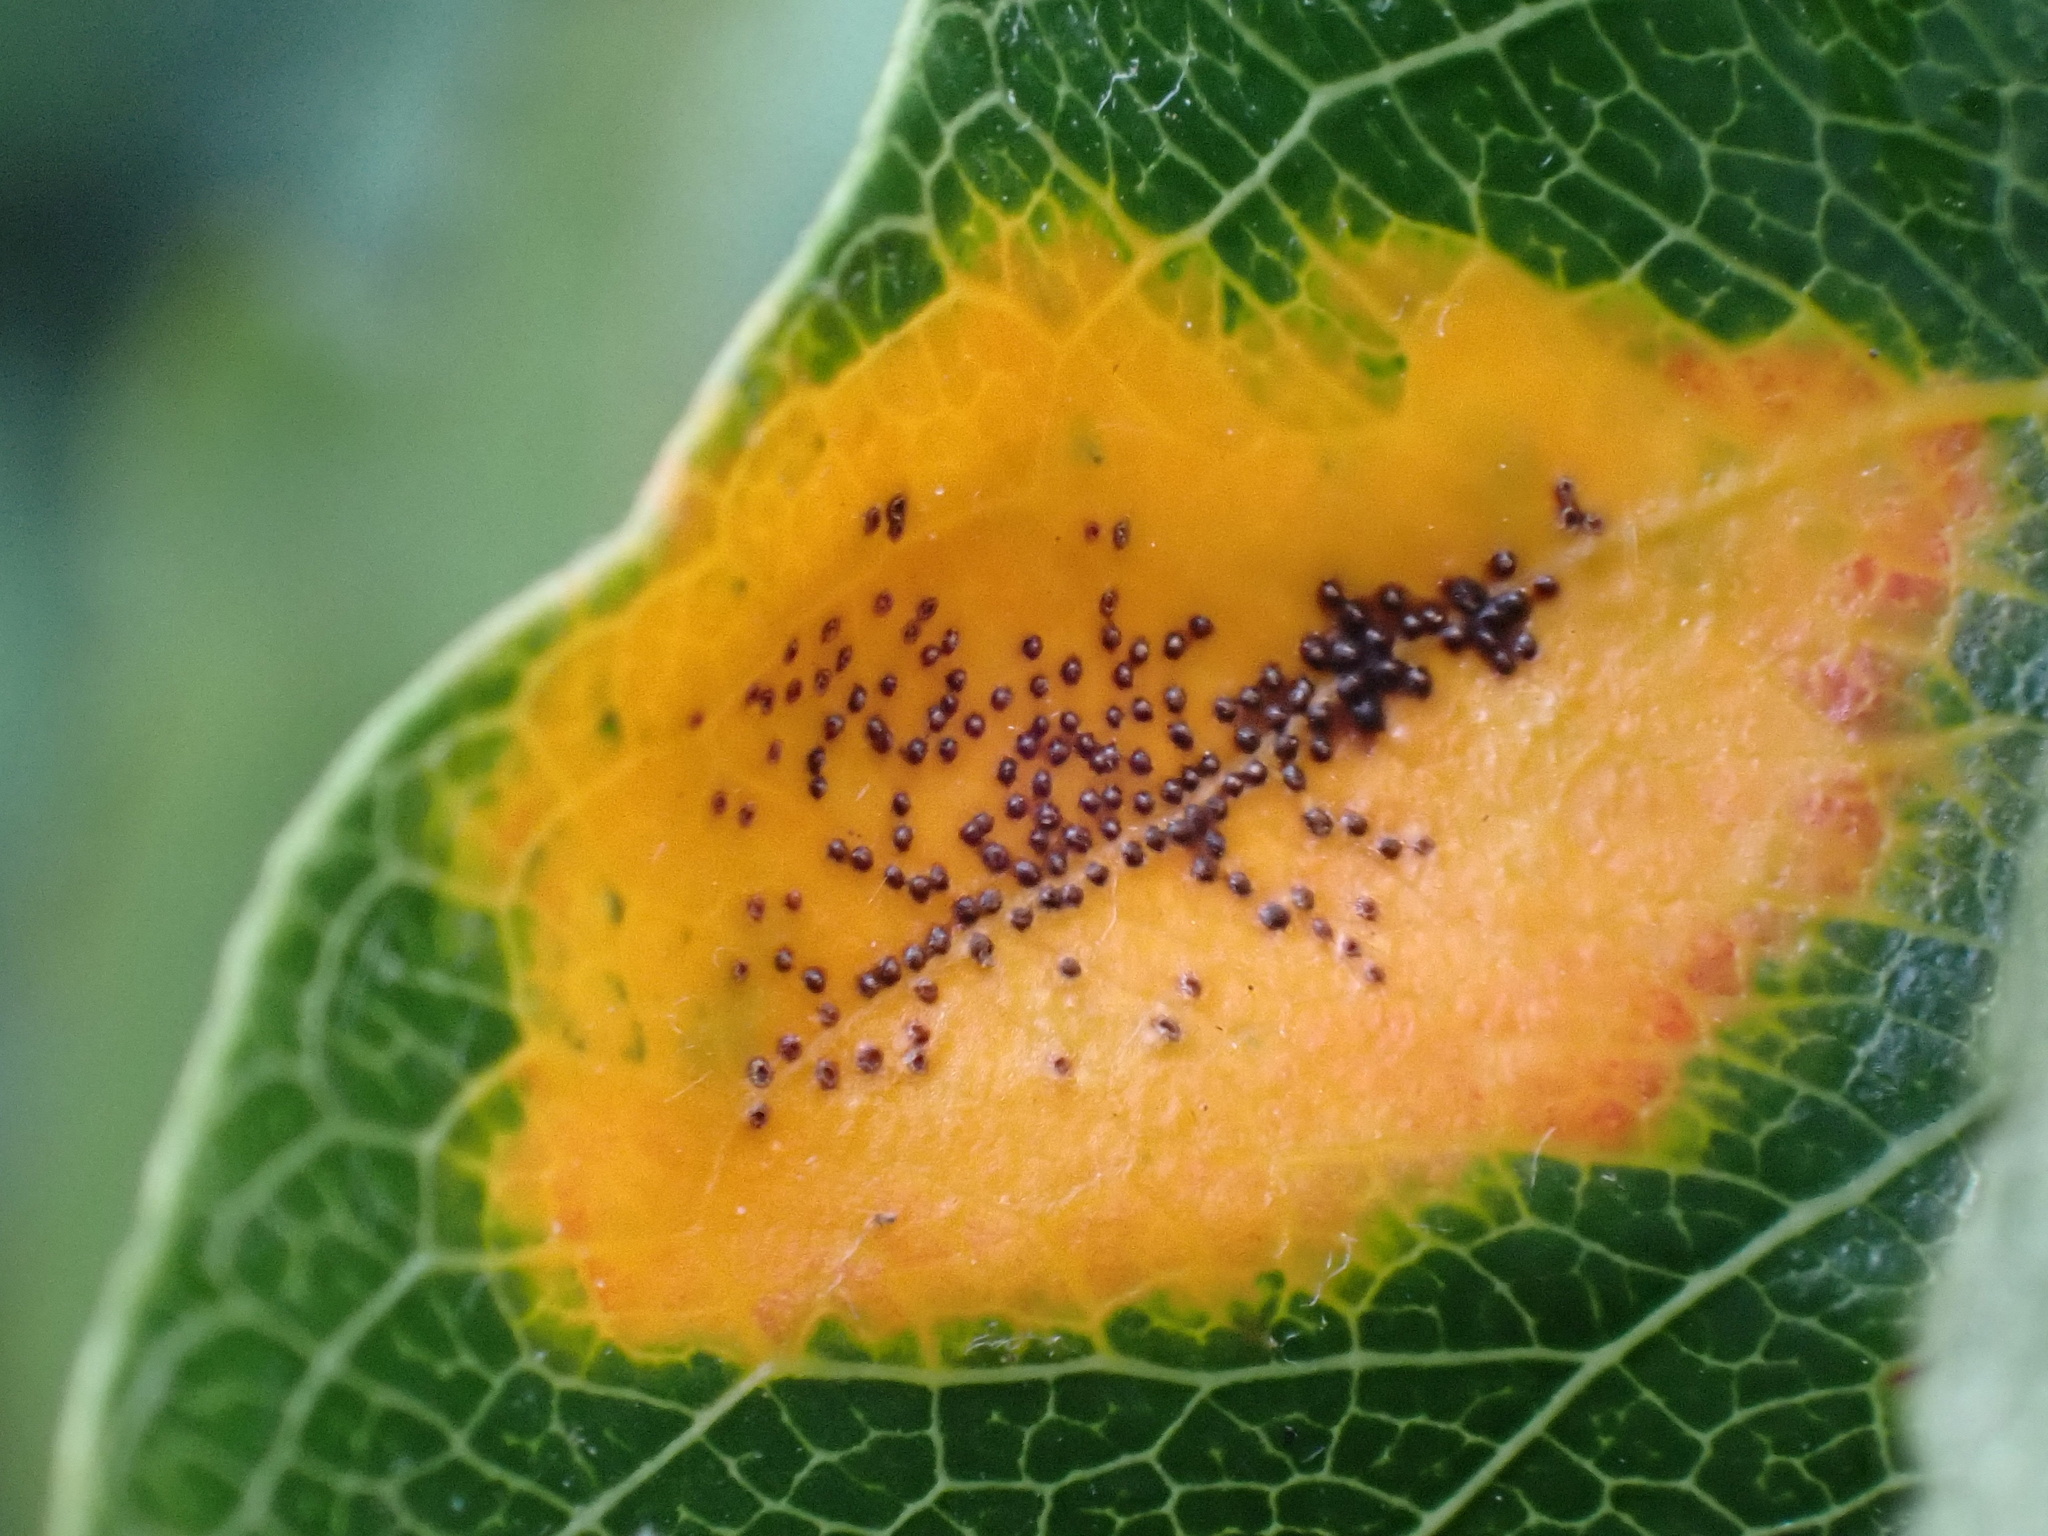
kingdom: Fungi
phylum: Basidiomycota
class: Pucciniomycetes
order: Pucciniales
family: Gymnosporangiaceae
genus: Gymnosporangium
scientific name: Gymnosporangium sabinae
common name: Pear trellis rust fungus
